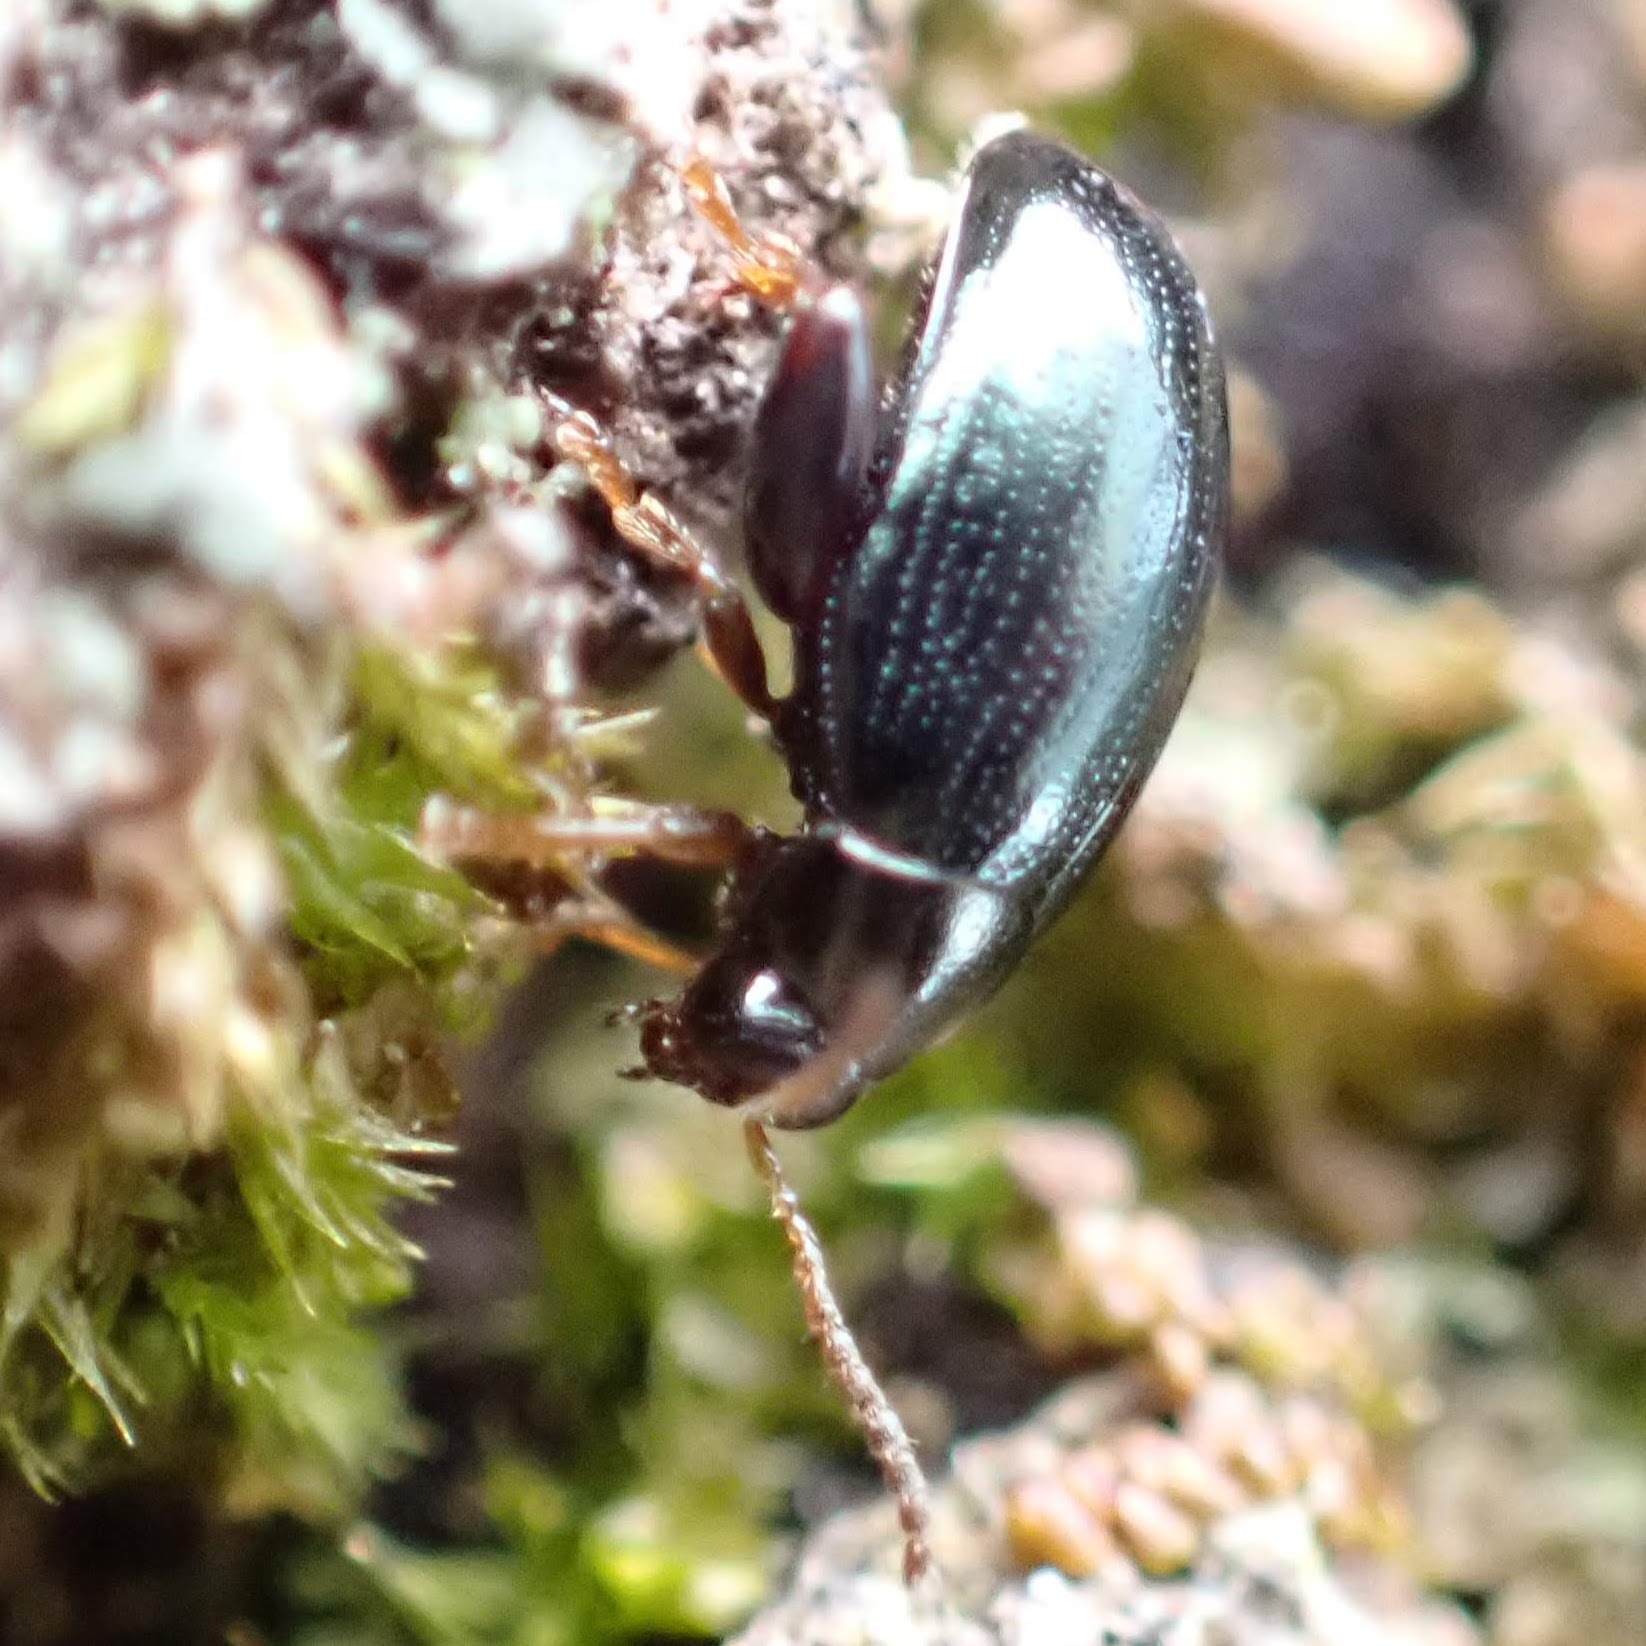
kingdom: Animalia
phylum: Arthropoda
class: Insecta
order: Coleoptera
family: Chrysomelidae
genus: Dibolia
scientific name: Dibolia borealis
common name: Northern plantain flea beetle
